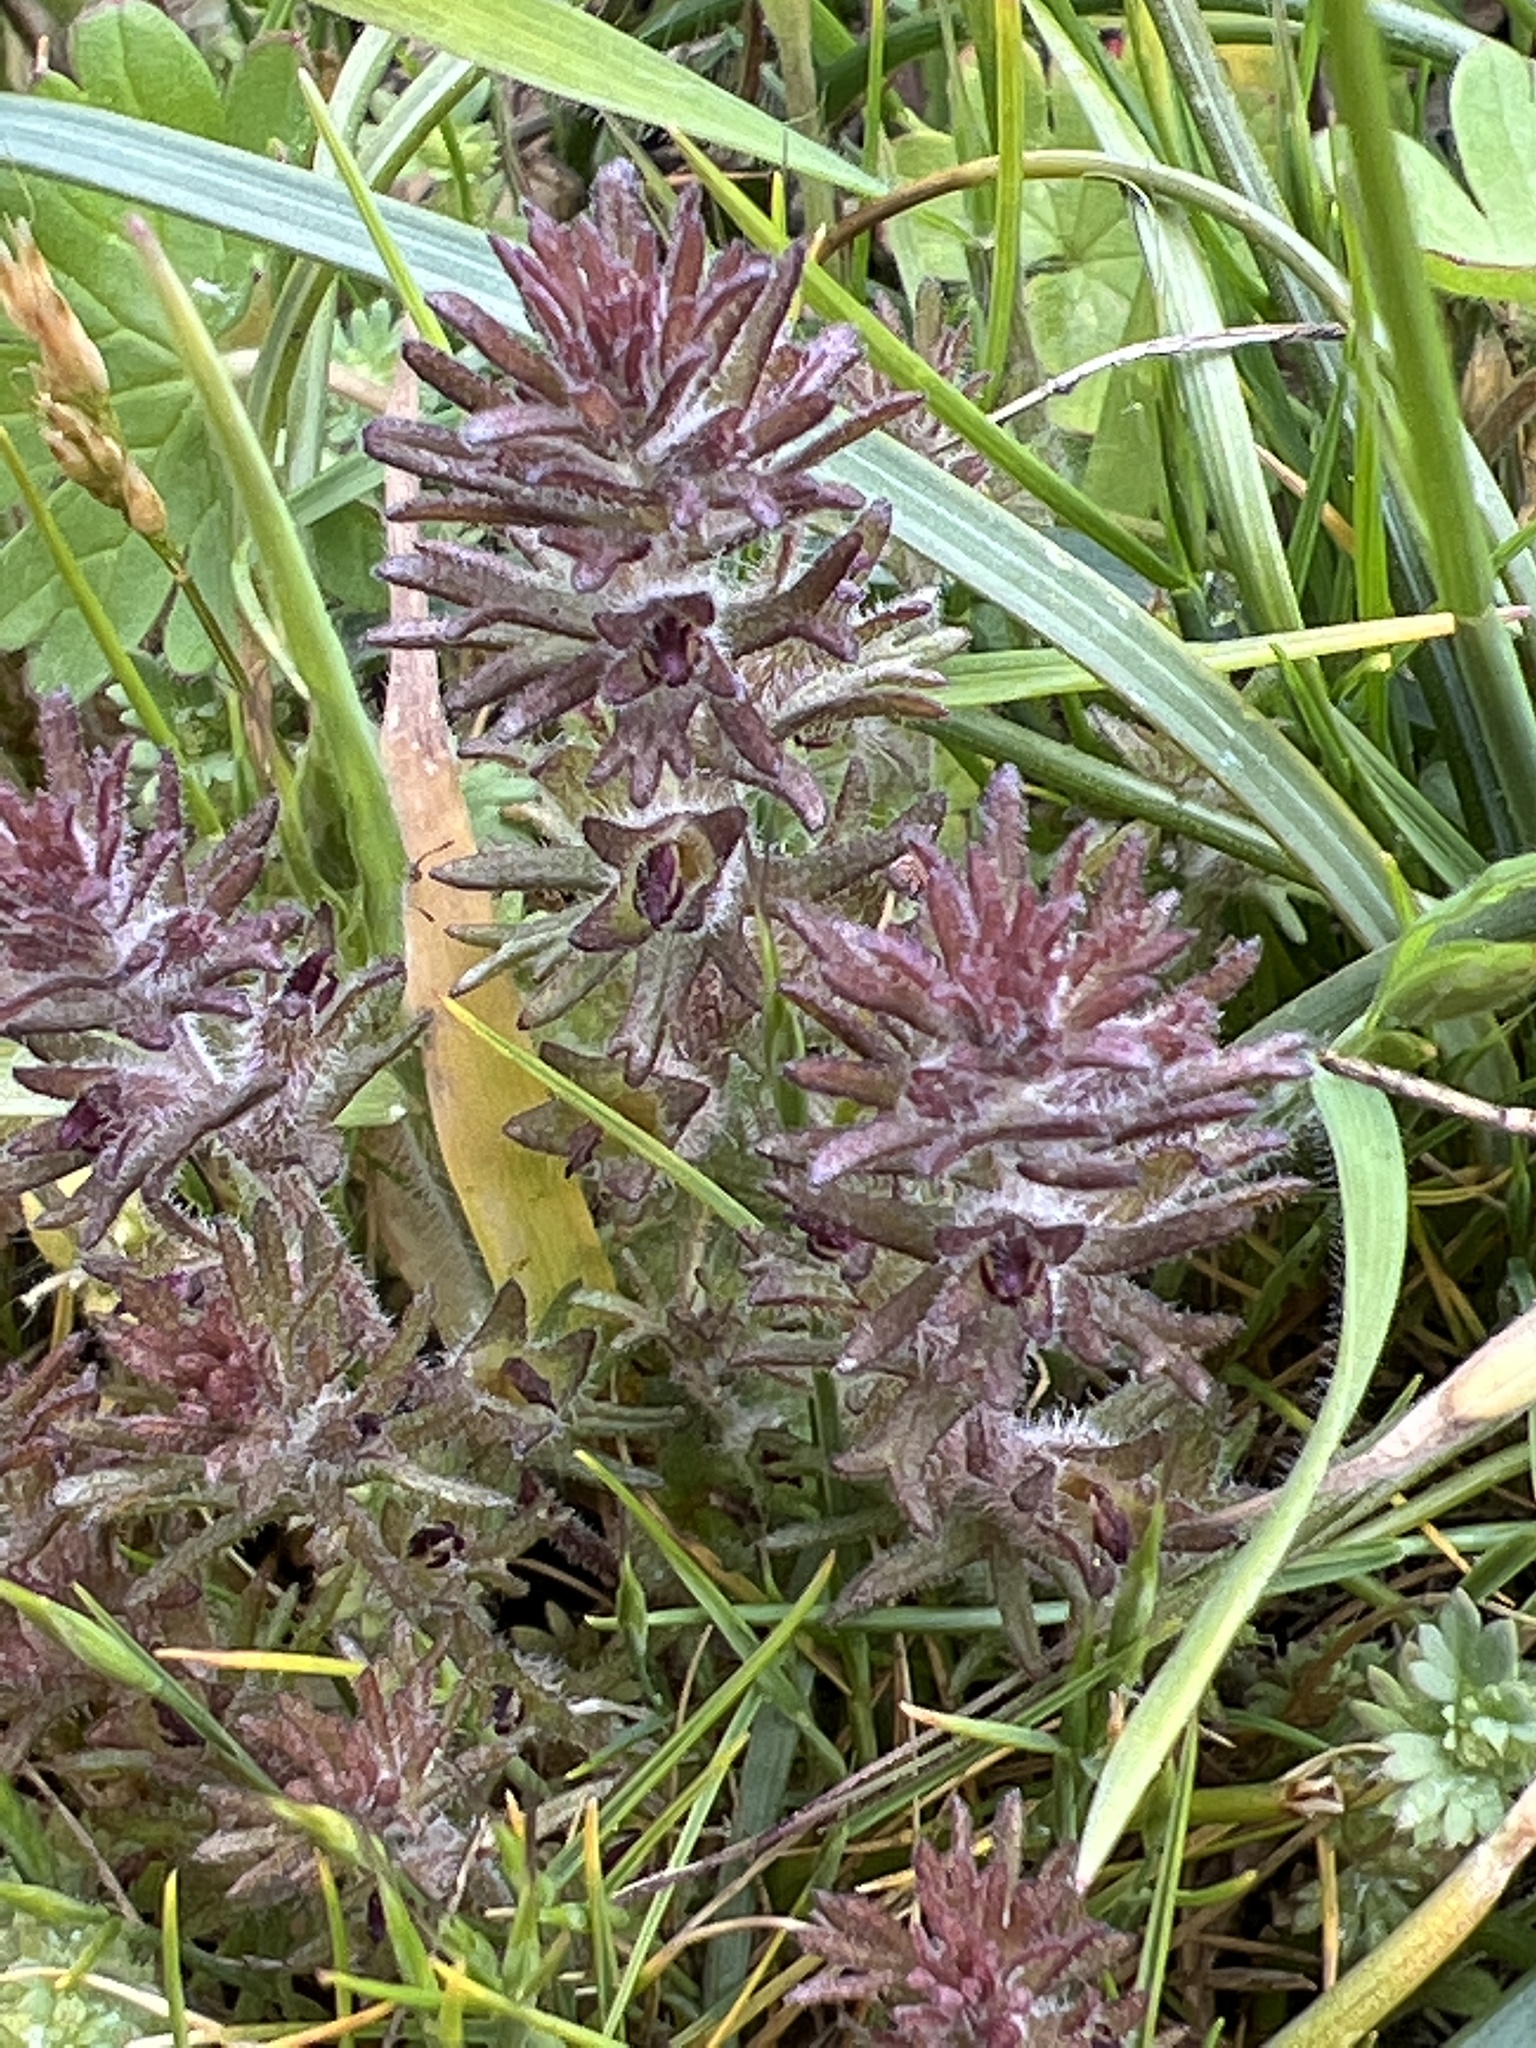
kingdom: Plantae
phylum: Tracheophyta
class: Magnoliopsida
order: Lamiales
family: Orobanchaceae
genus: Triphysaria
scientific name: Triphysaria pusilla
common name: Dwarf false owl-clover
